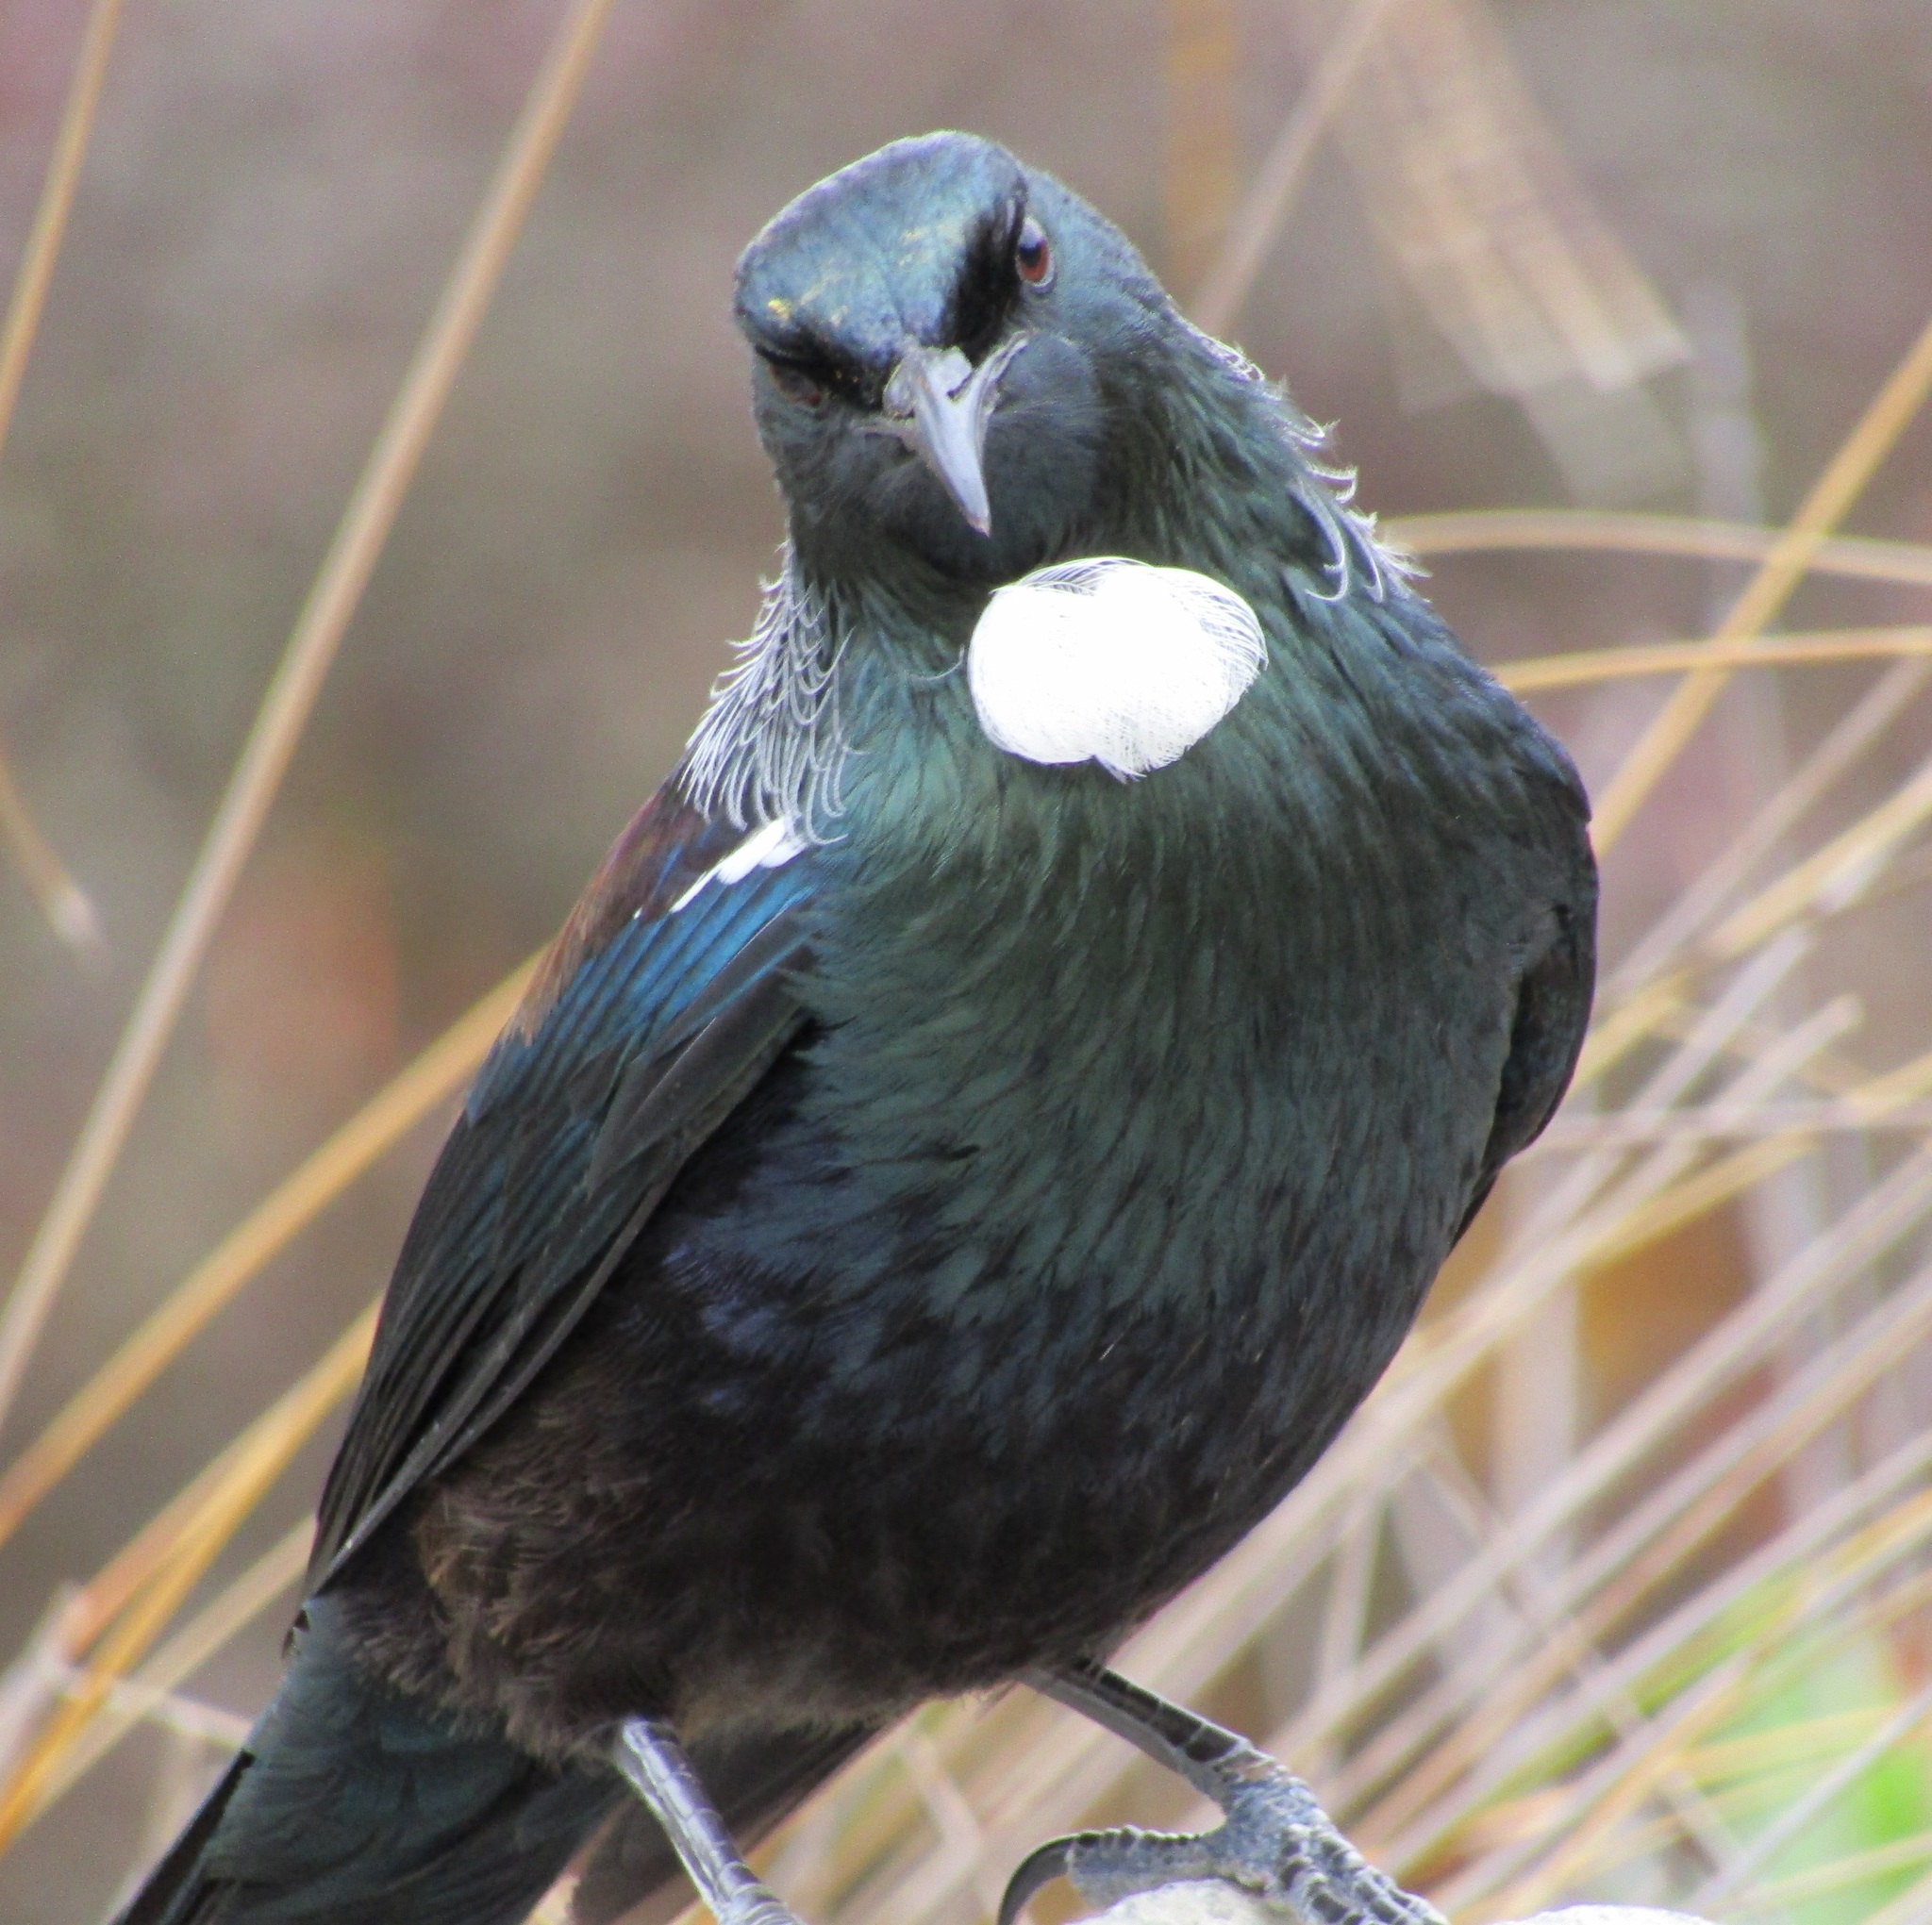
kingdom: Animalia
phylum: Chordata
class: Aves
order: Passeriformes
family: Meliphagidae
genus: Prosthemadera
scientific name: Prosthemadera novaeseelandiae
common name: Tui
